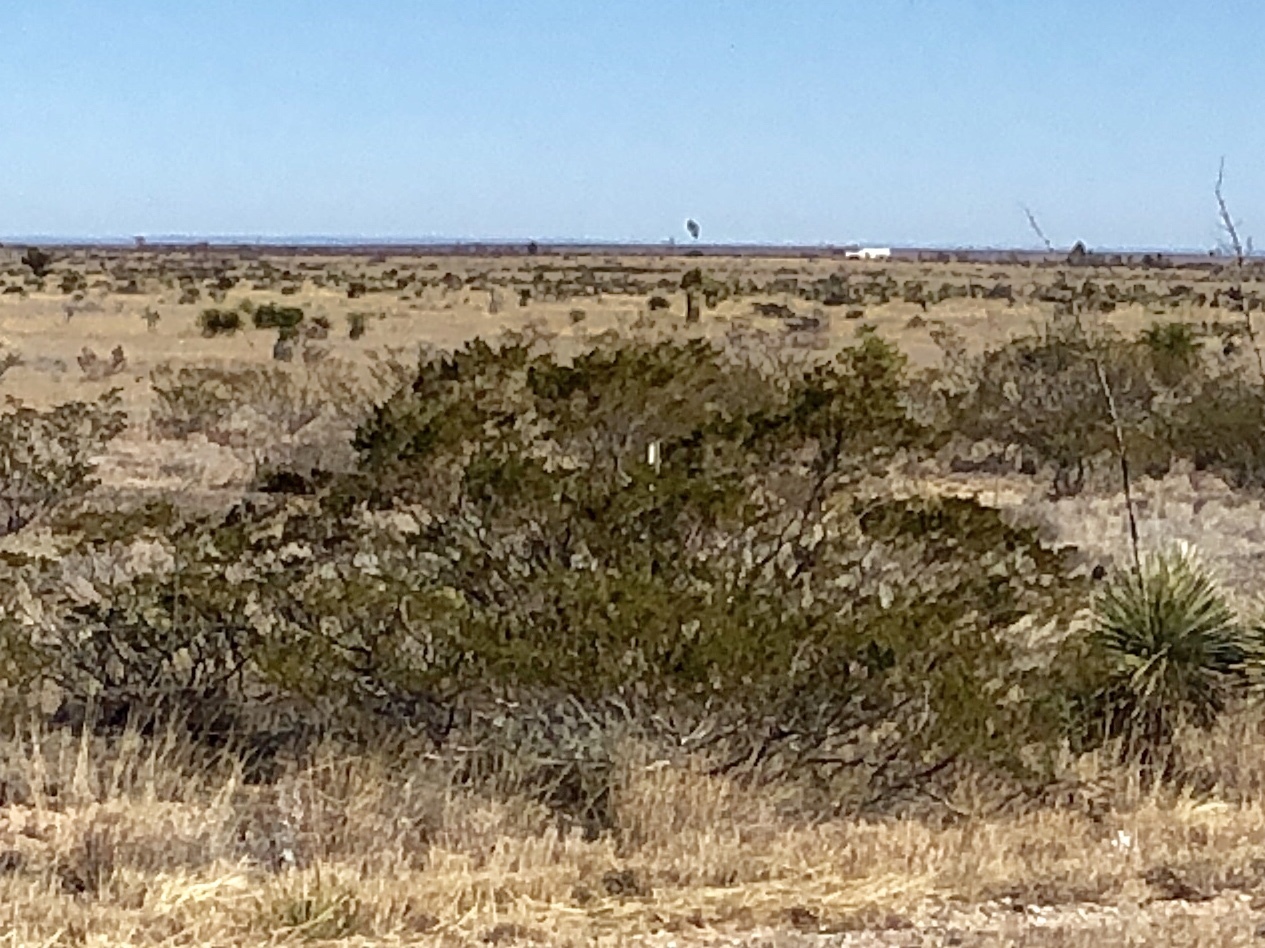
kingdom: Plantae
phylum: Tracheophyta
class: Magnoliopsida
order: Zygophyllales
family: Zygophyllaceae
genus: Larrea
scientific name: Larrea tridentata
